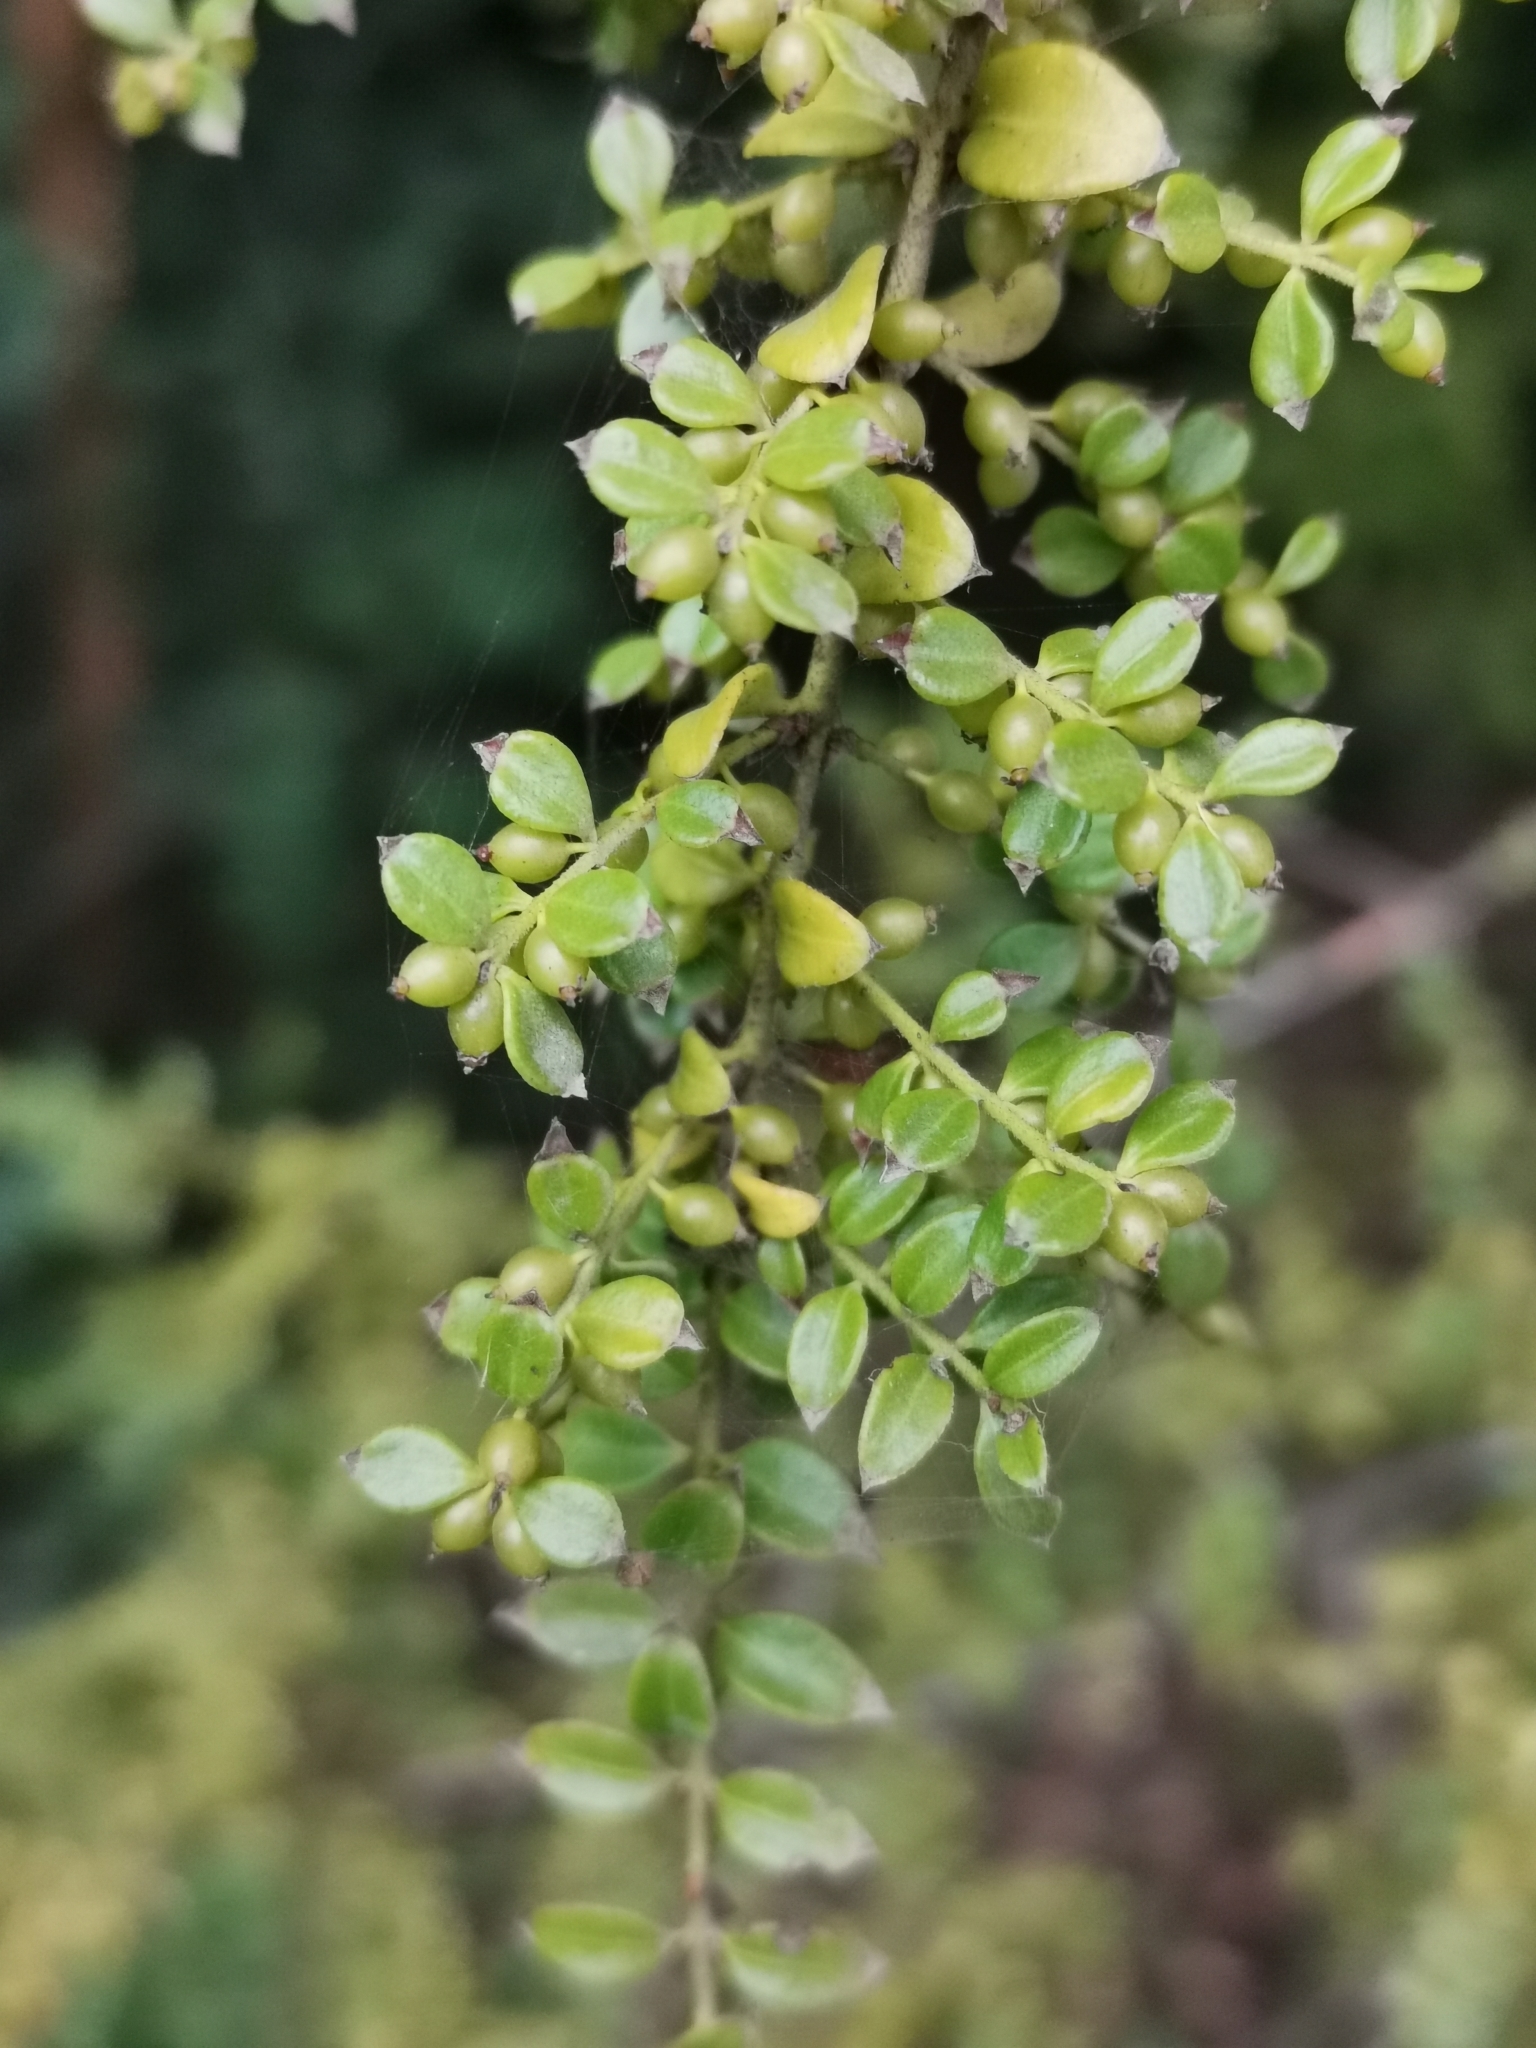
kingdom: Plantae
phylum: Tracheophyta
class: Magnoliopsida
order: Santalales
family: Santalaceae
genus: Lepidoceras
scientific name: Lepidoceras chilense
